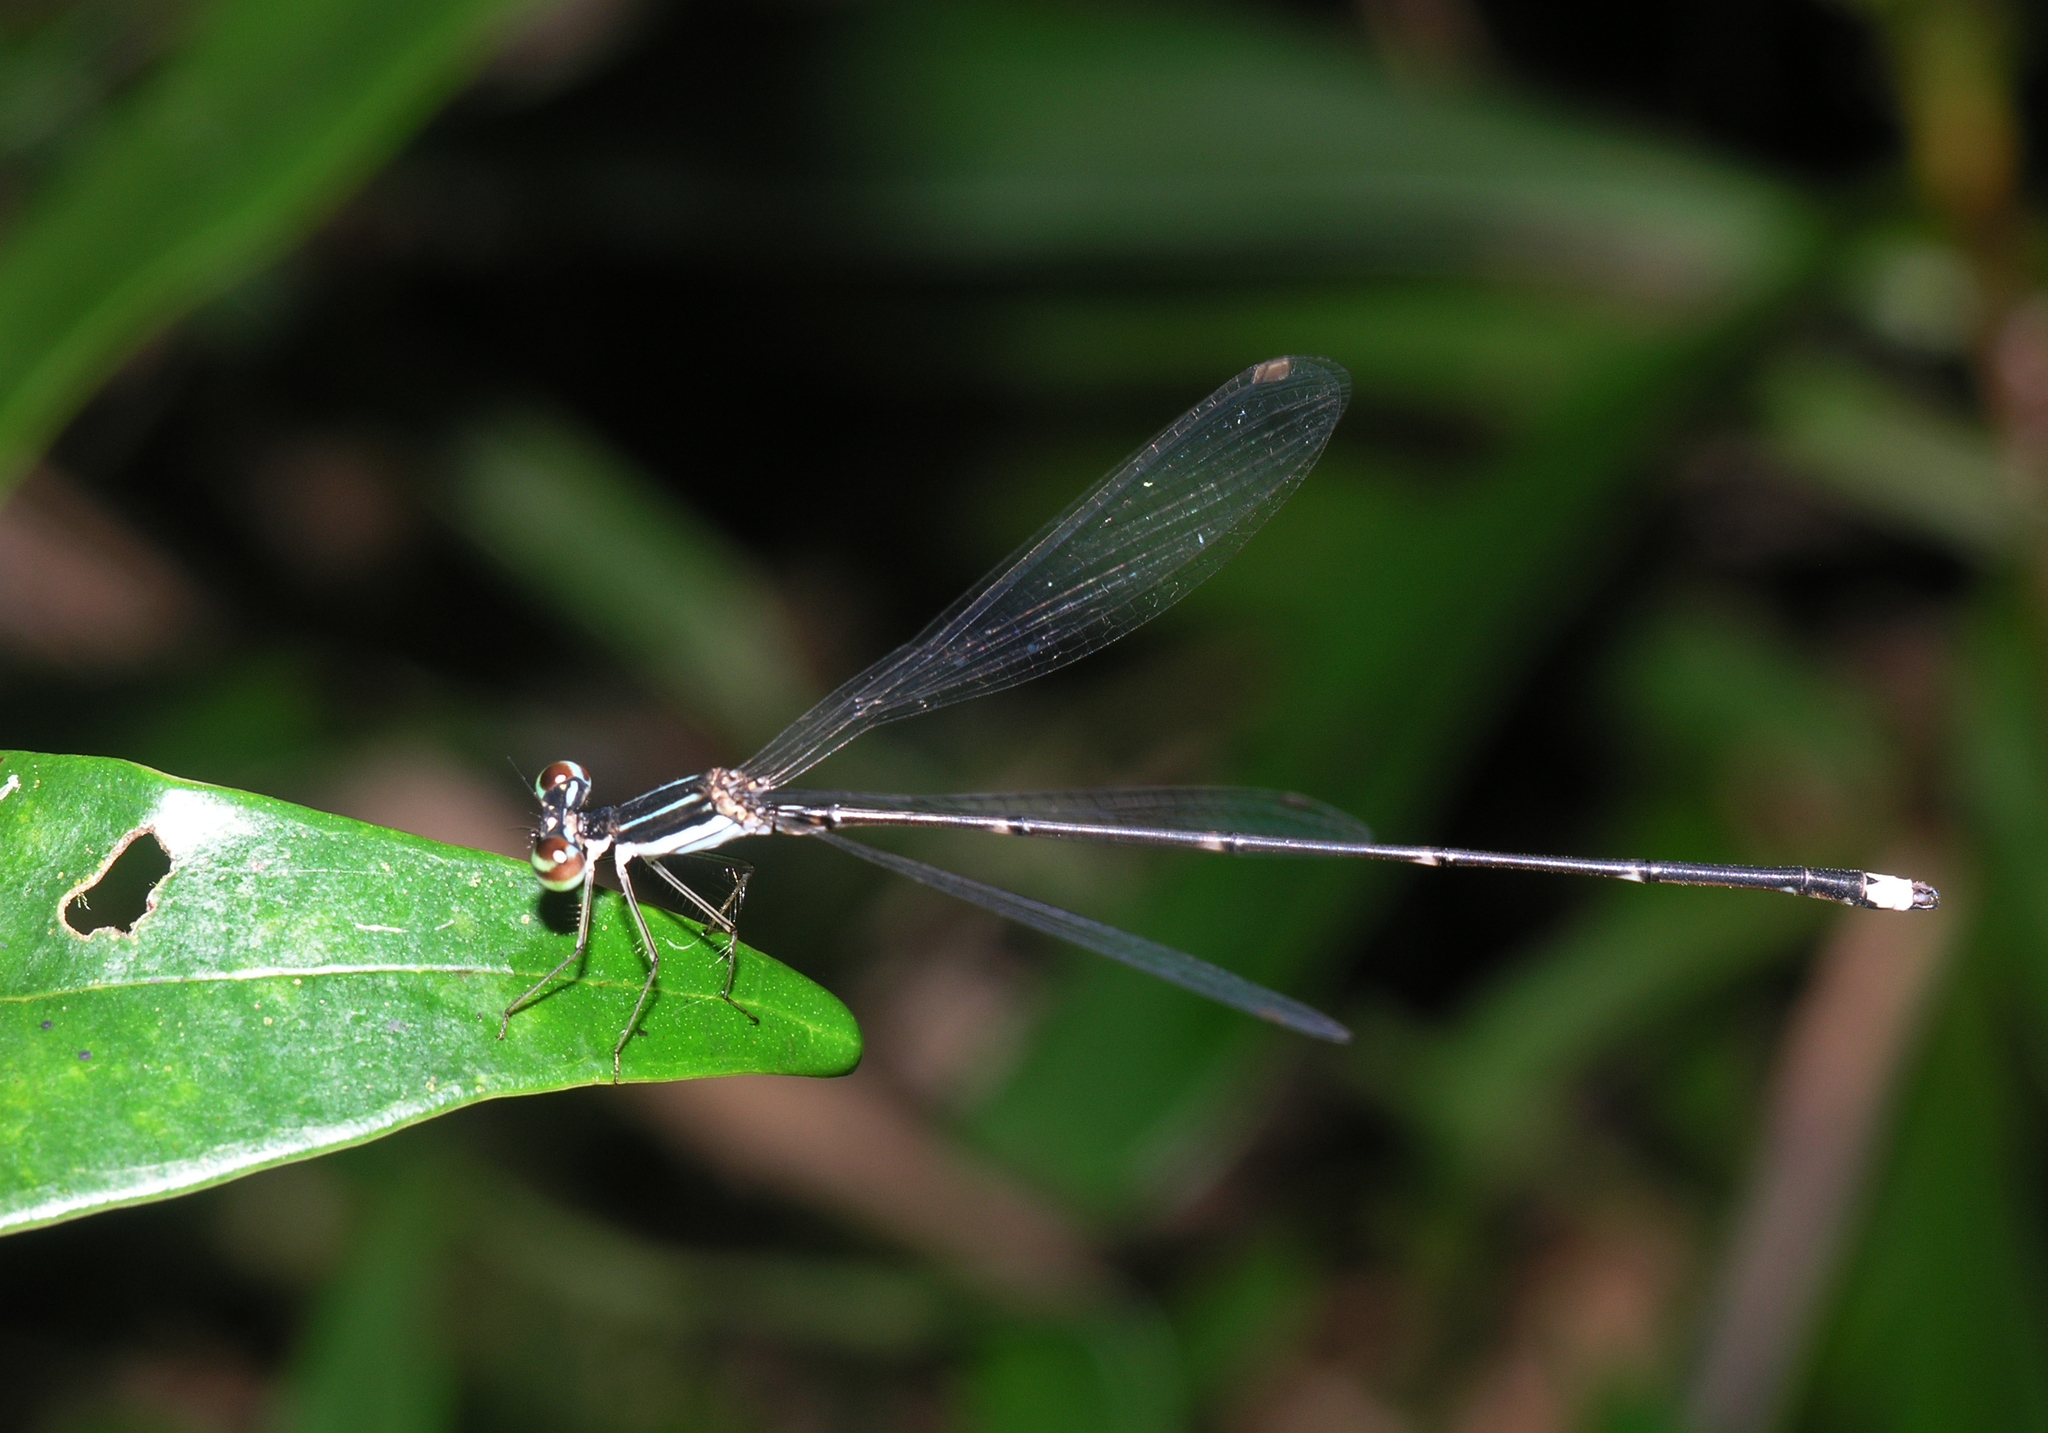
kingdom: Animalia
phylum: Arthropoda
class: Insecta
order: Odonata
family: Platycnemididae
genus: Coeliccia
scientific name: Coeliccia kazukoae
